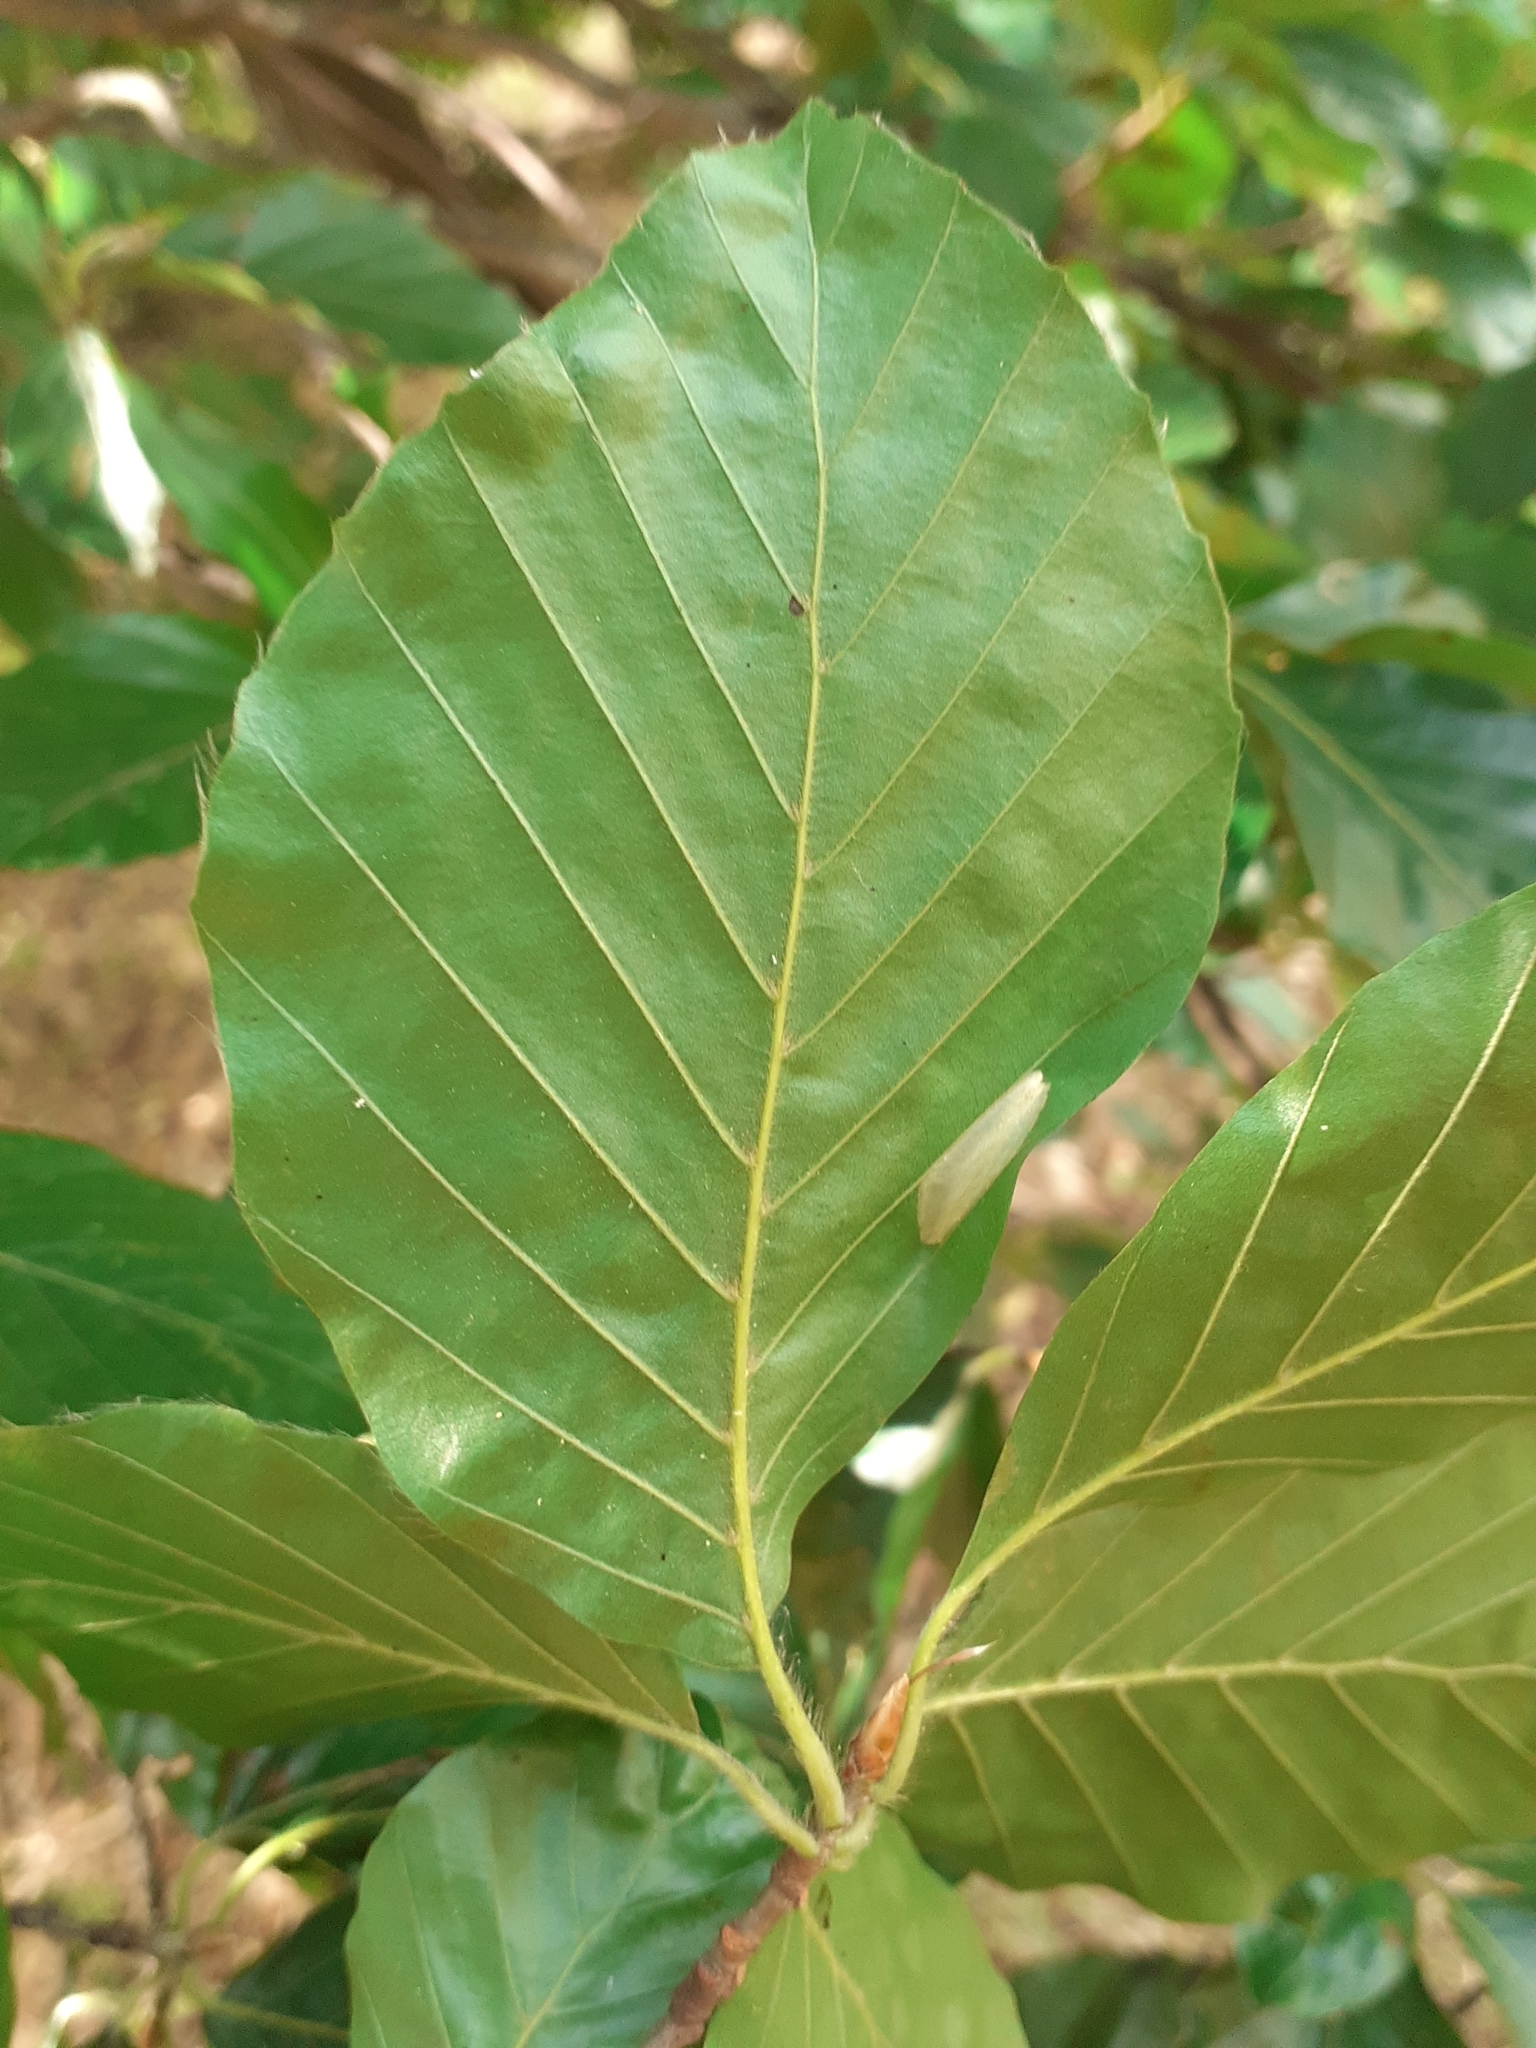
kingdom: Animalia
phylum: Arthropoda
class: Insecta
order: Lepidoptera
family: Gracillariidae
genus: Phyllonorycter
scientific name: Phyllonorycter maestingella
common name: Beech midget
